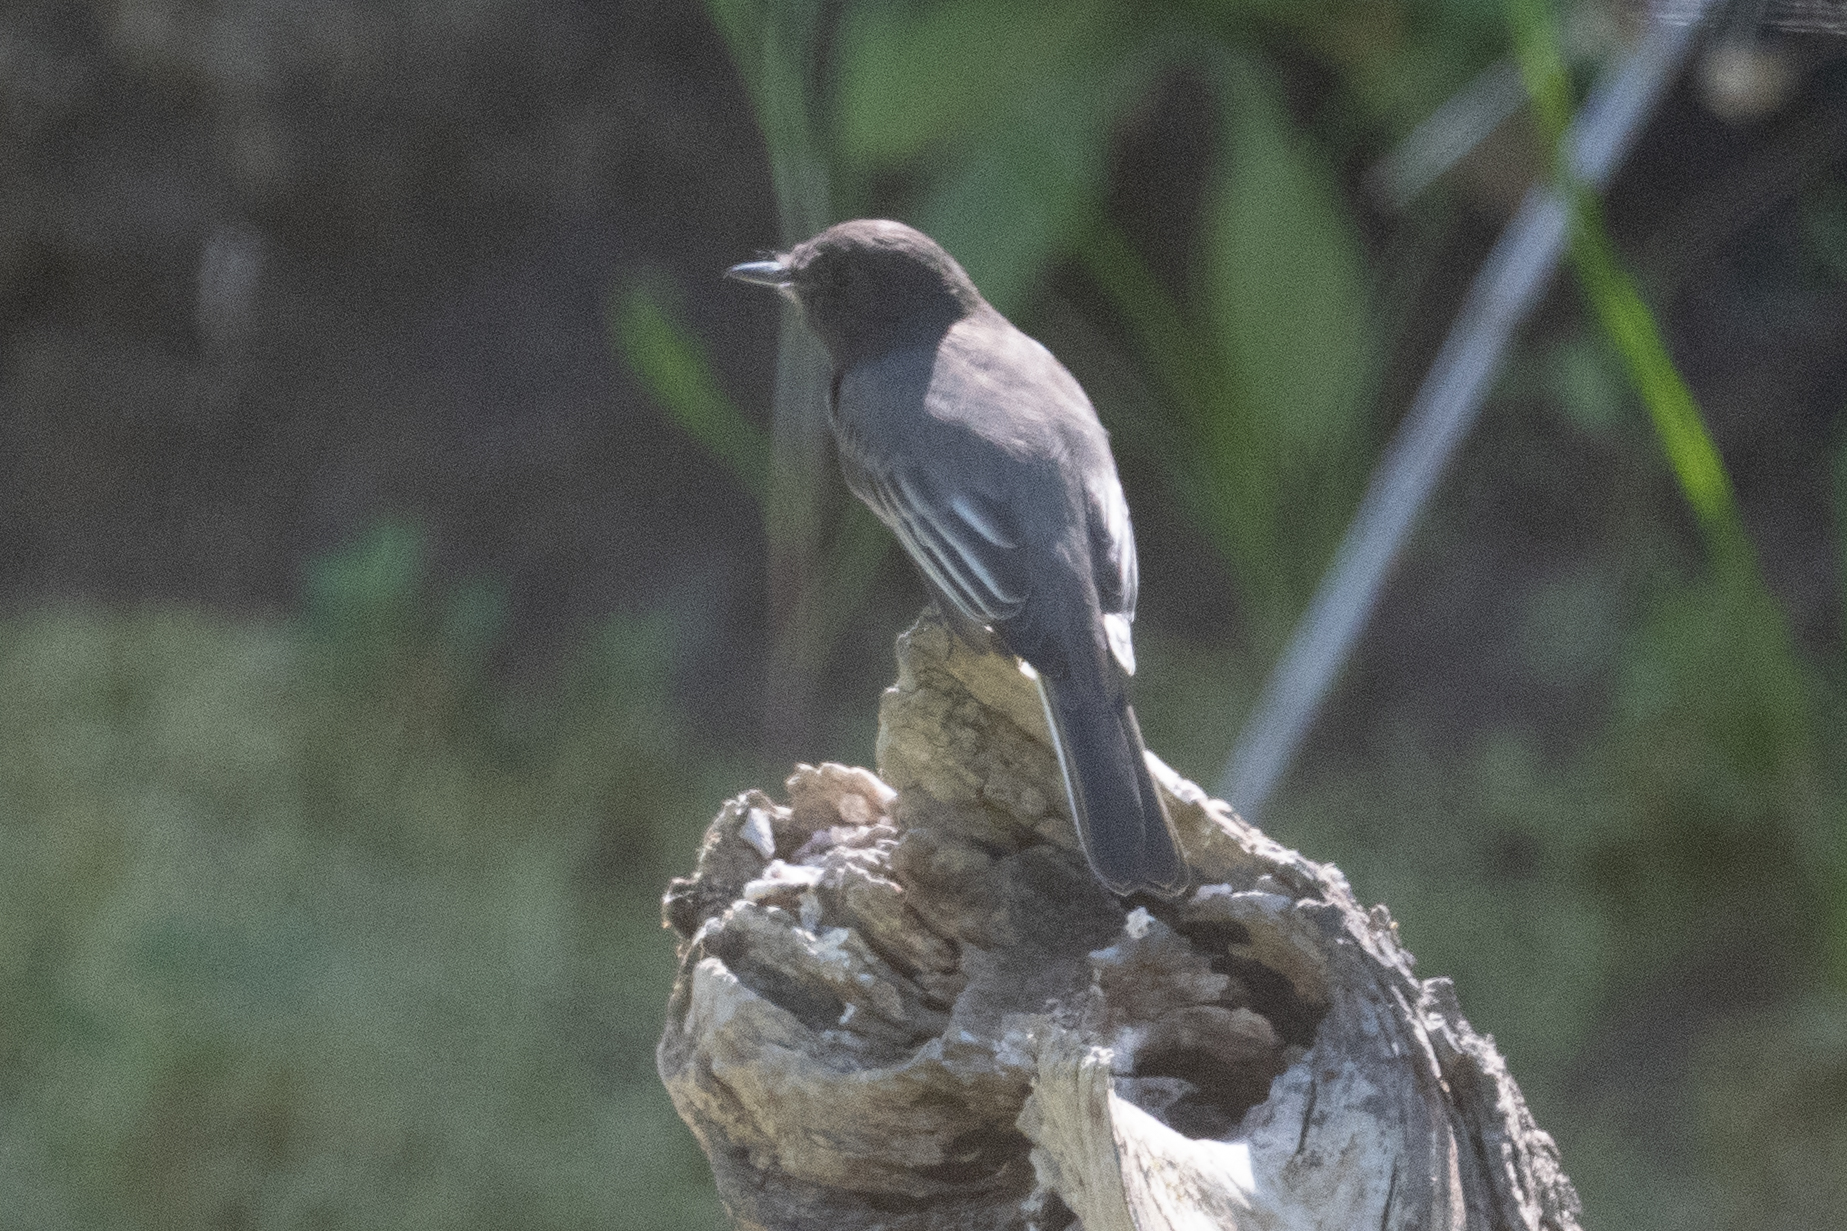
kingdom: Animalia
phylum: Chordata
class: Aves
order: Passeriformes
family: Tyrannidae
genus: Sayornis
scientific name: Sayornis nigricans
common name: Black phoebe
